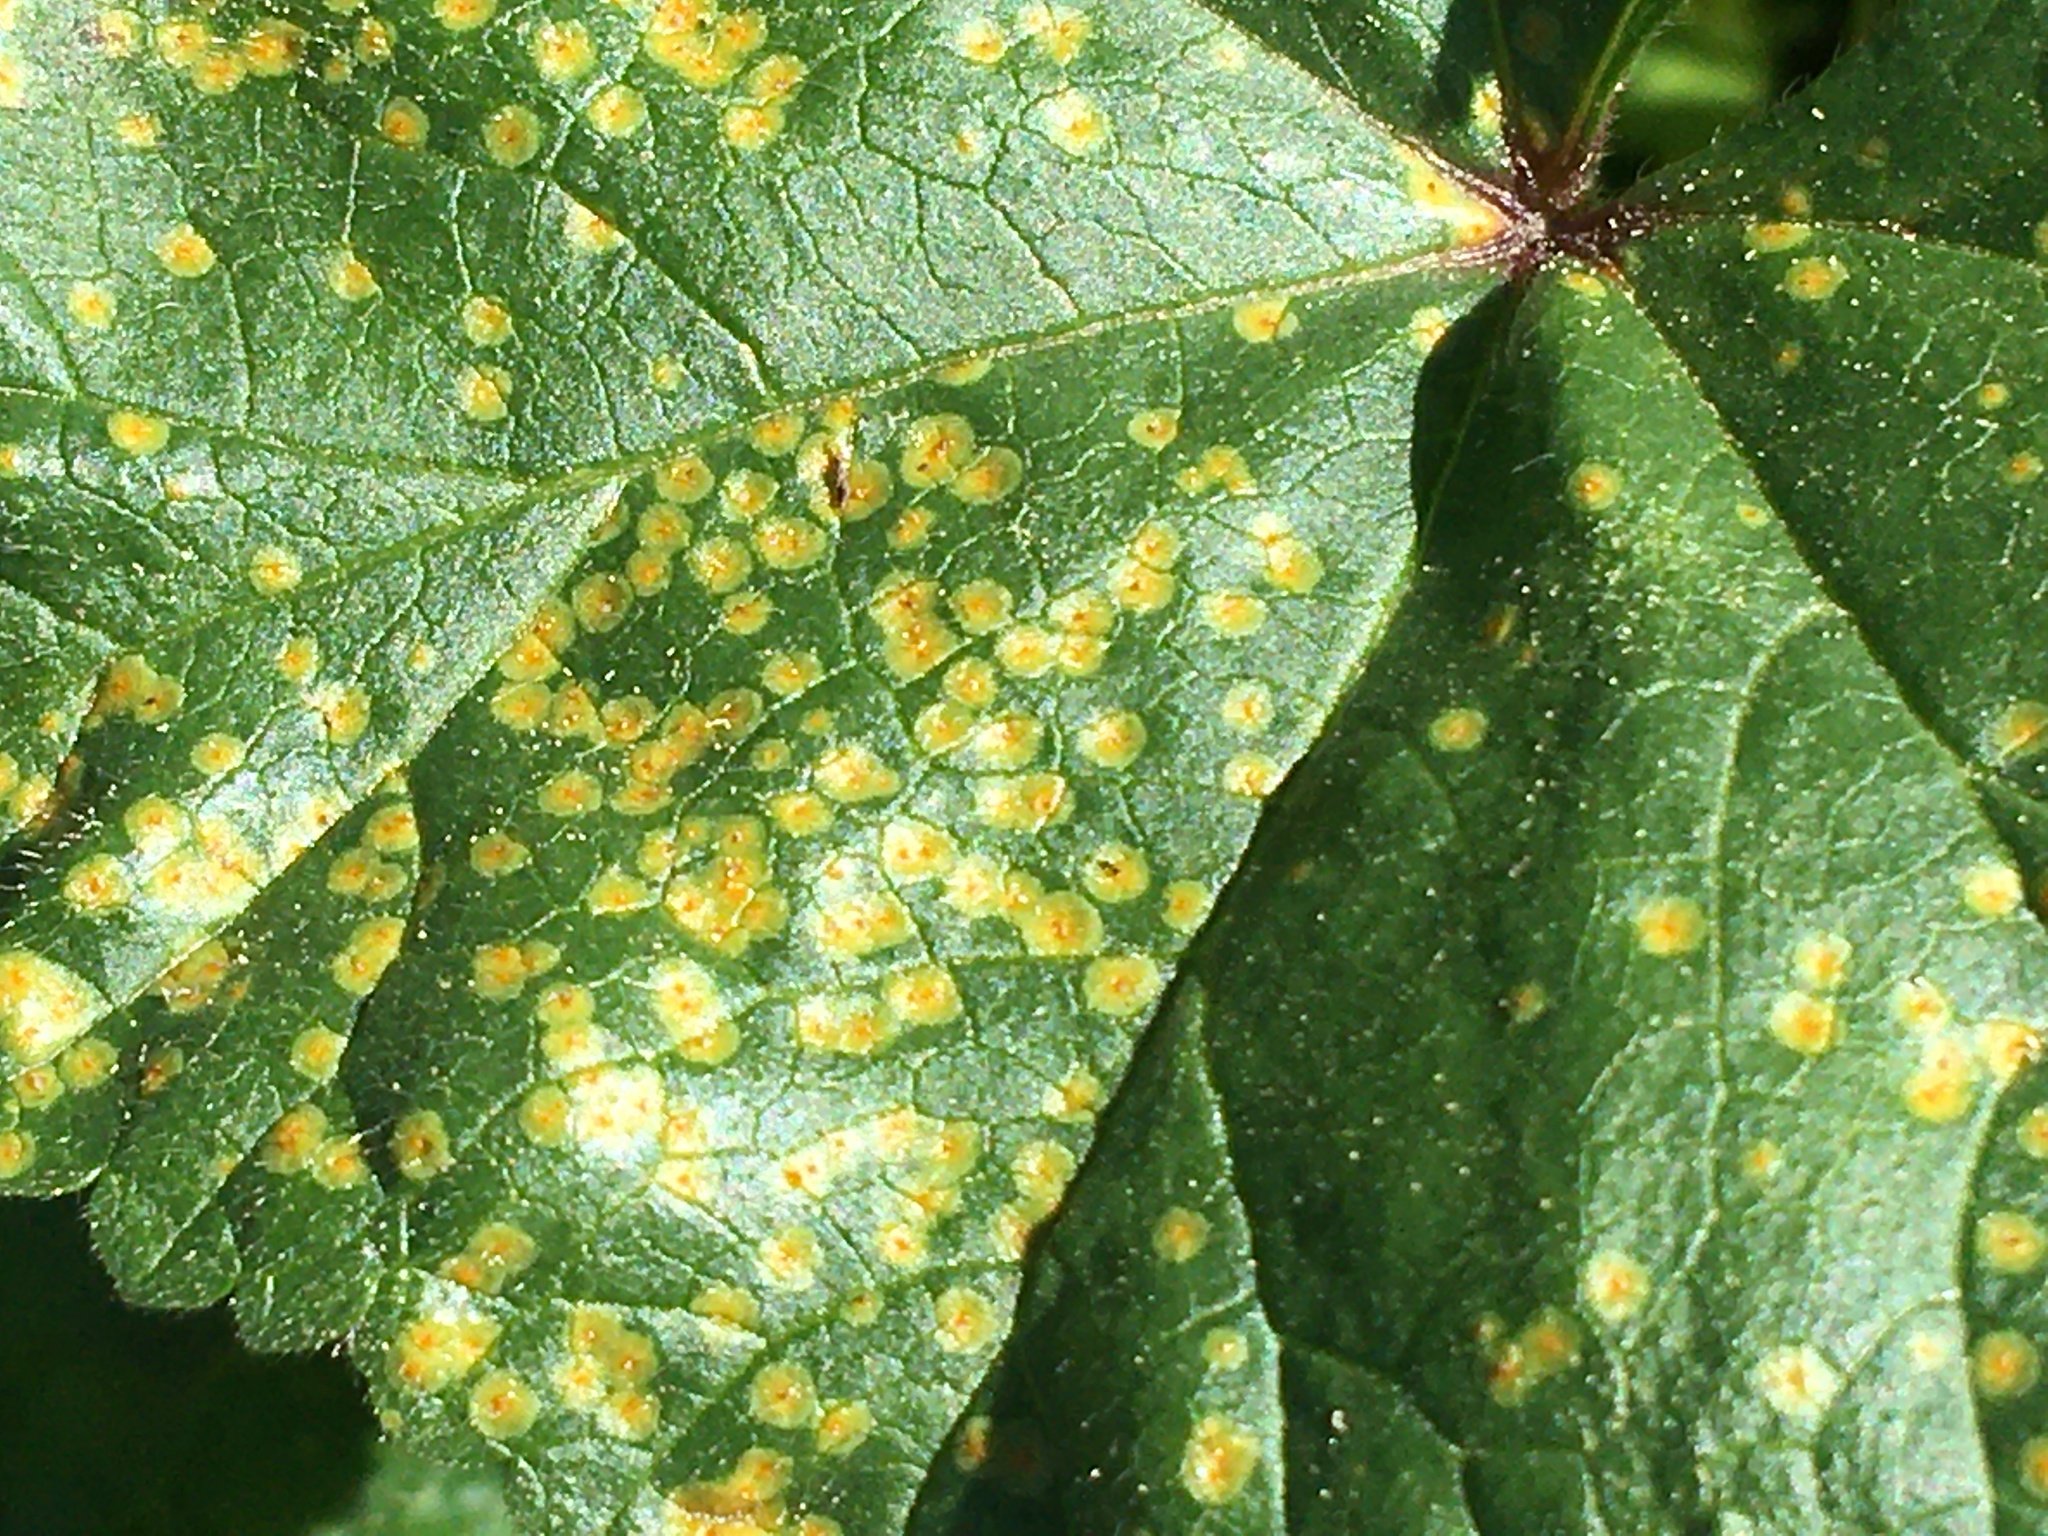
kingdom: Fungi
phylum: Basidiomycota
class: Pucciniomycetes
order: Pucciniales
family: Pucciniaceae
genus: Puccinia
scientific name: Puccinia podophylli
